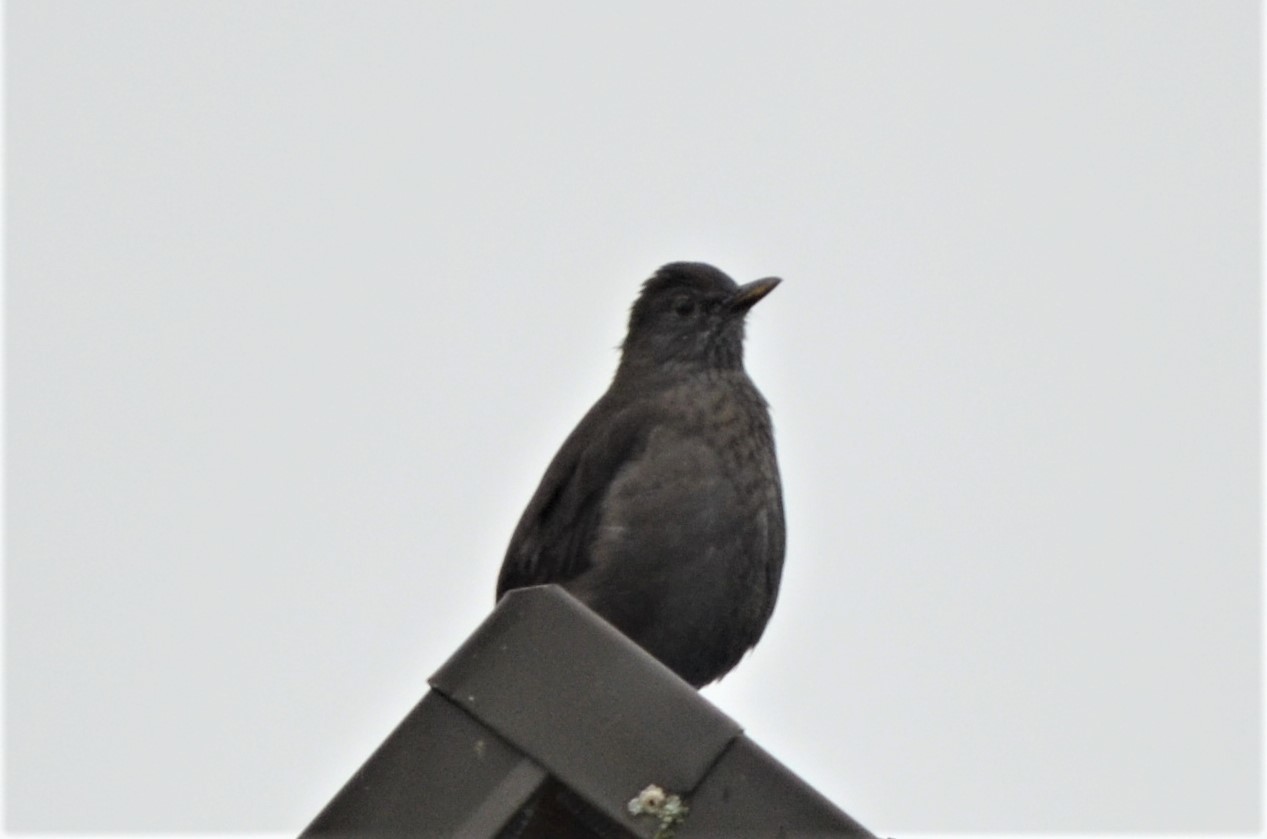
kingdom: Animalia
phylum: Chordata
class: Aves
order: Passeriformes
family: Turdidae
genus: Turdus
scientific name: Turdus merula
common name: Common blackbird
